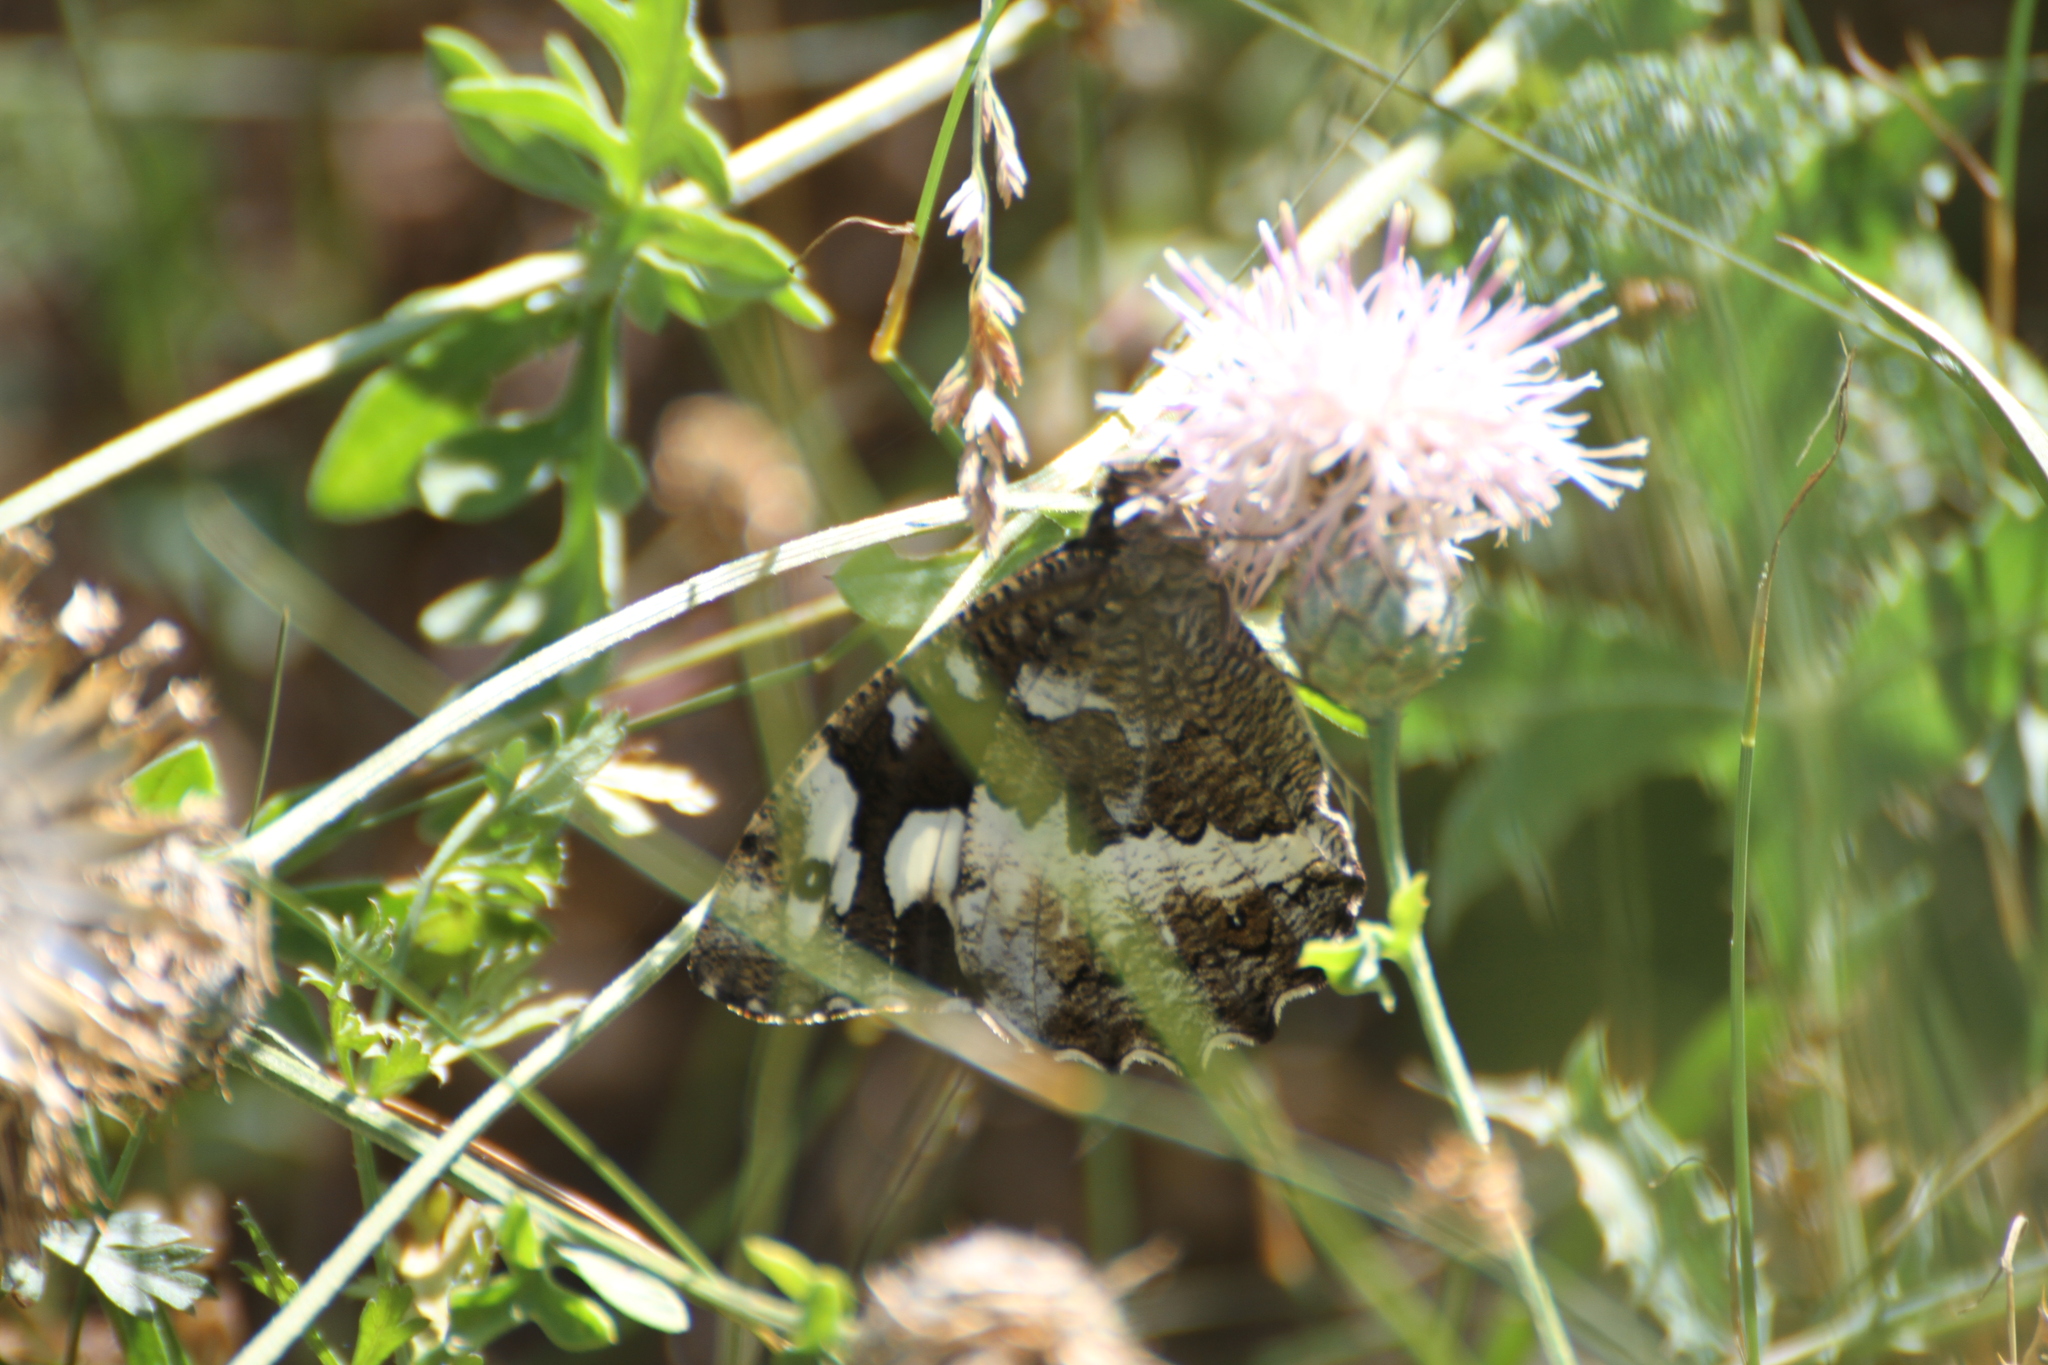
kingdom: Animalia
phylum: Arthropoda
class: Insecta
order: Lepidoptera
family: Lycaenidae
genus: Loweia
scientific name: Loweia tityrus
